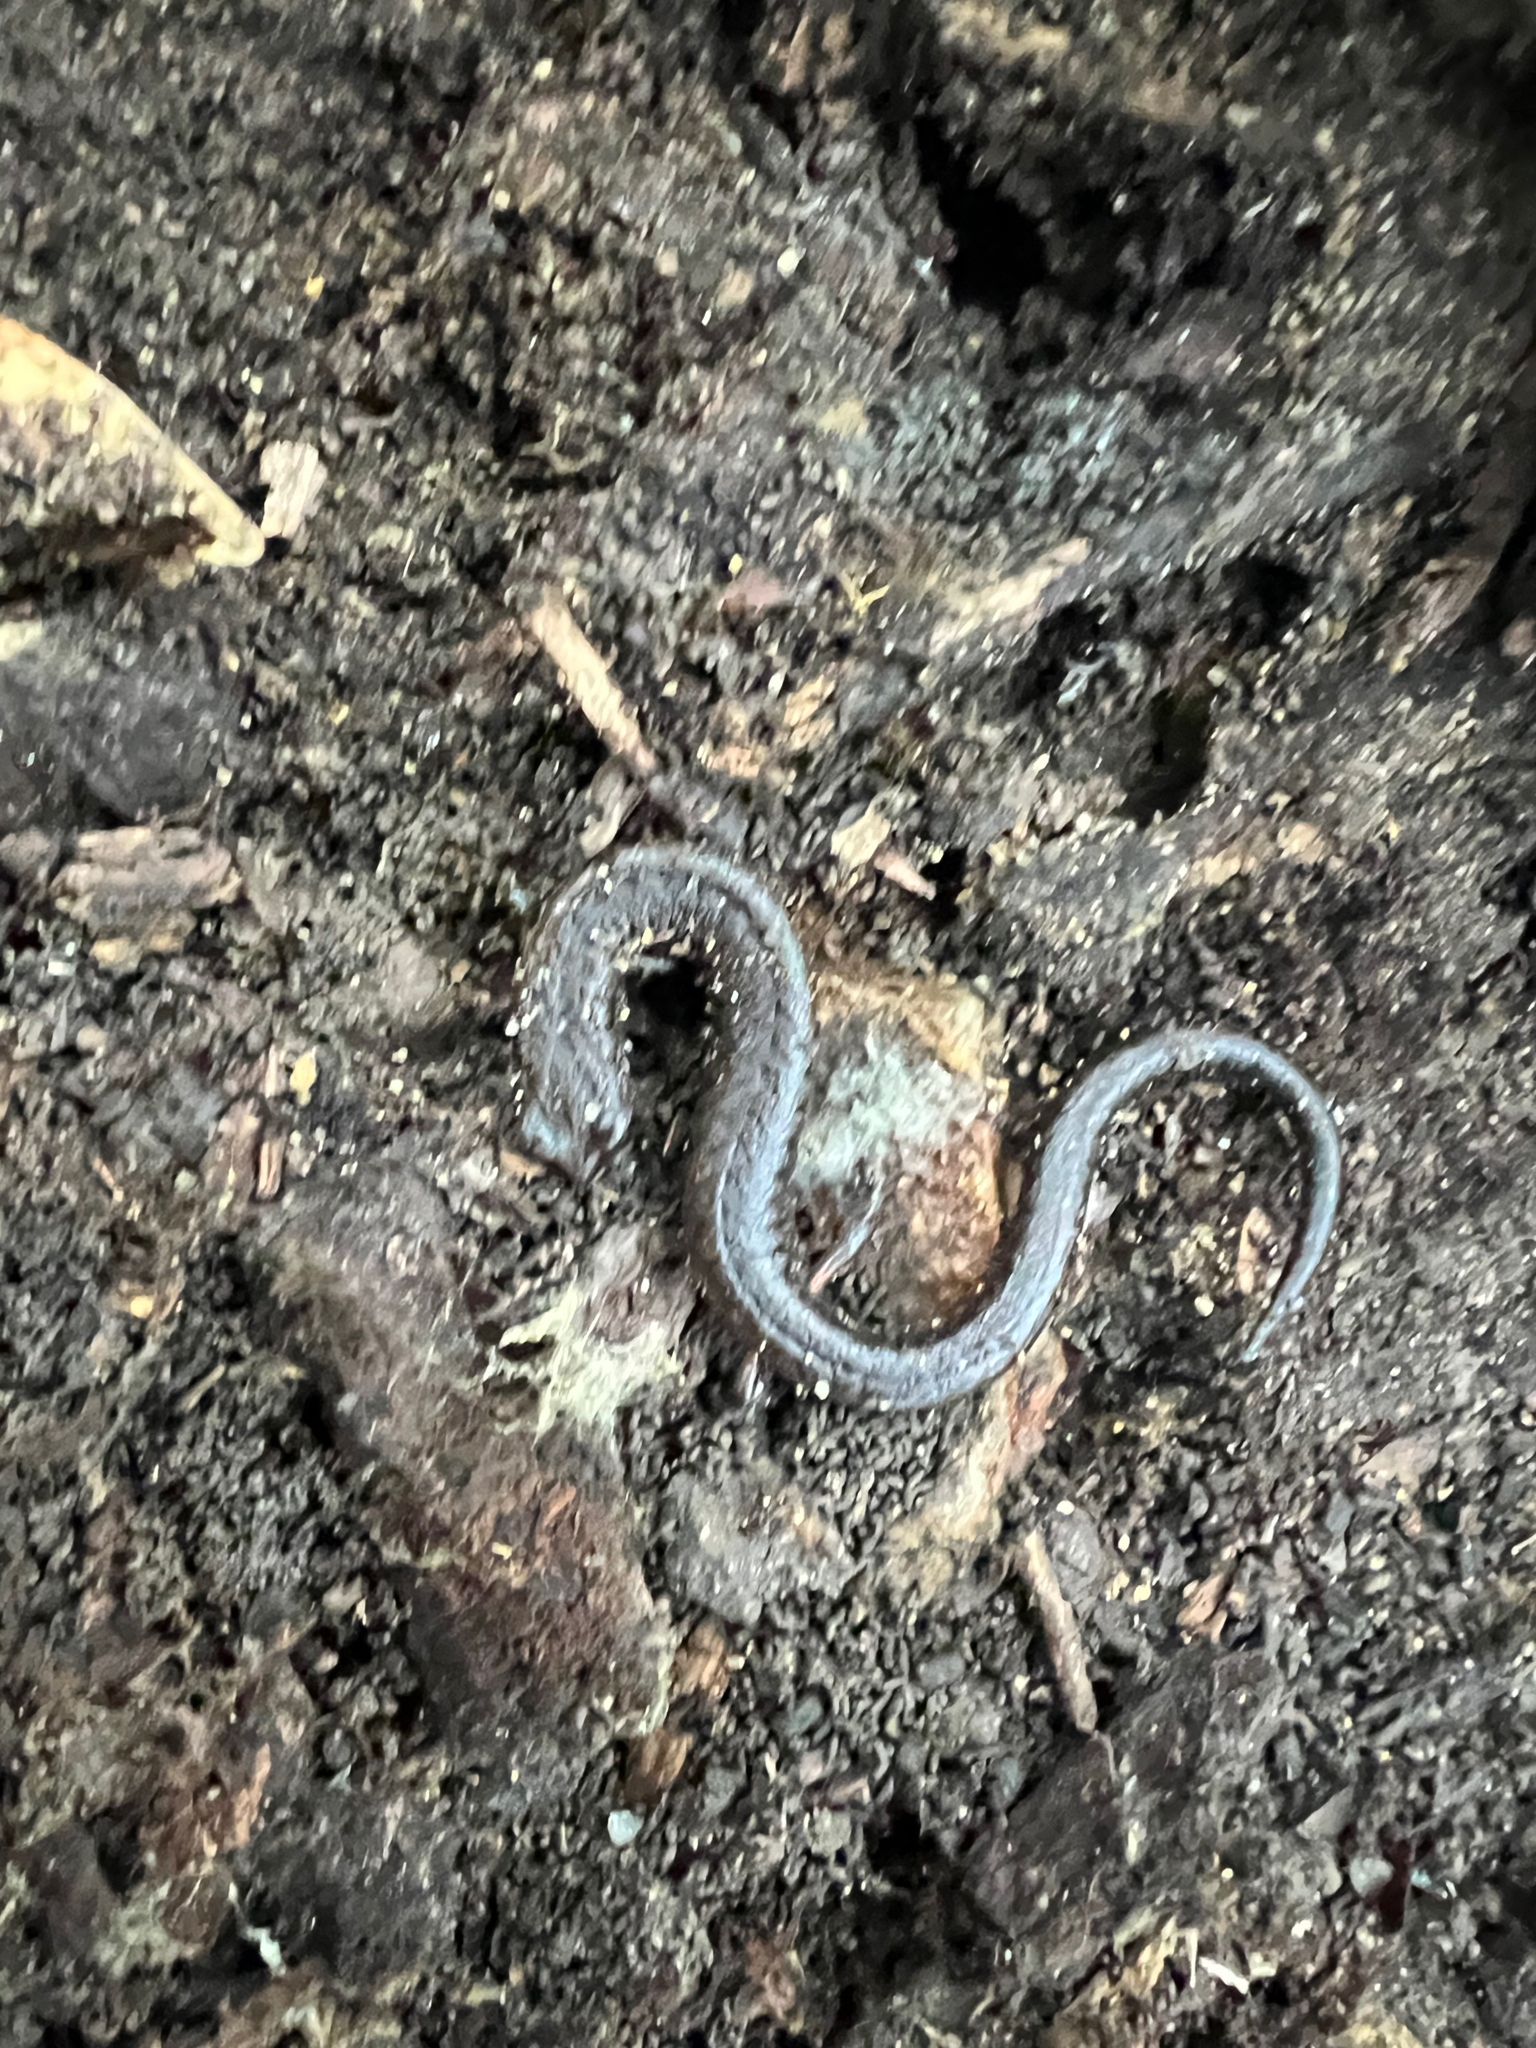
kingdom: Animalia
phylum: Chordata
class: Amphibia
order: Caudata
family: Plethodontidae
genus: Batrachoseps
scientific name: Batrachoseps attenuatus
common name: California slender salamander
